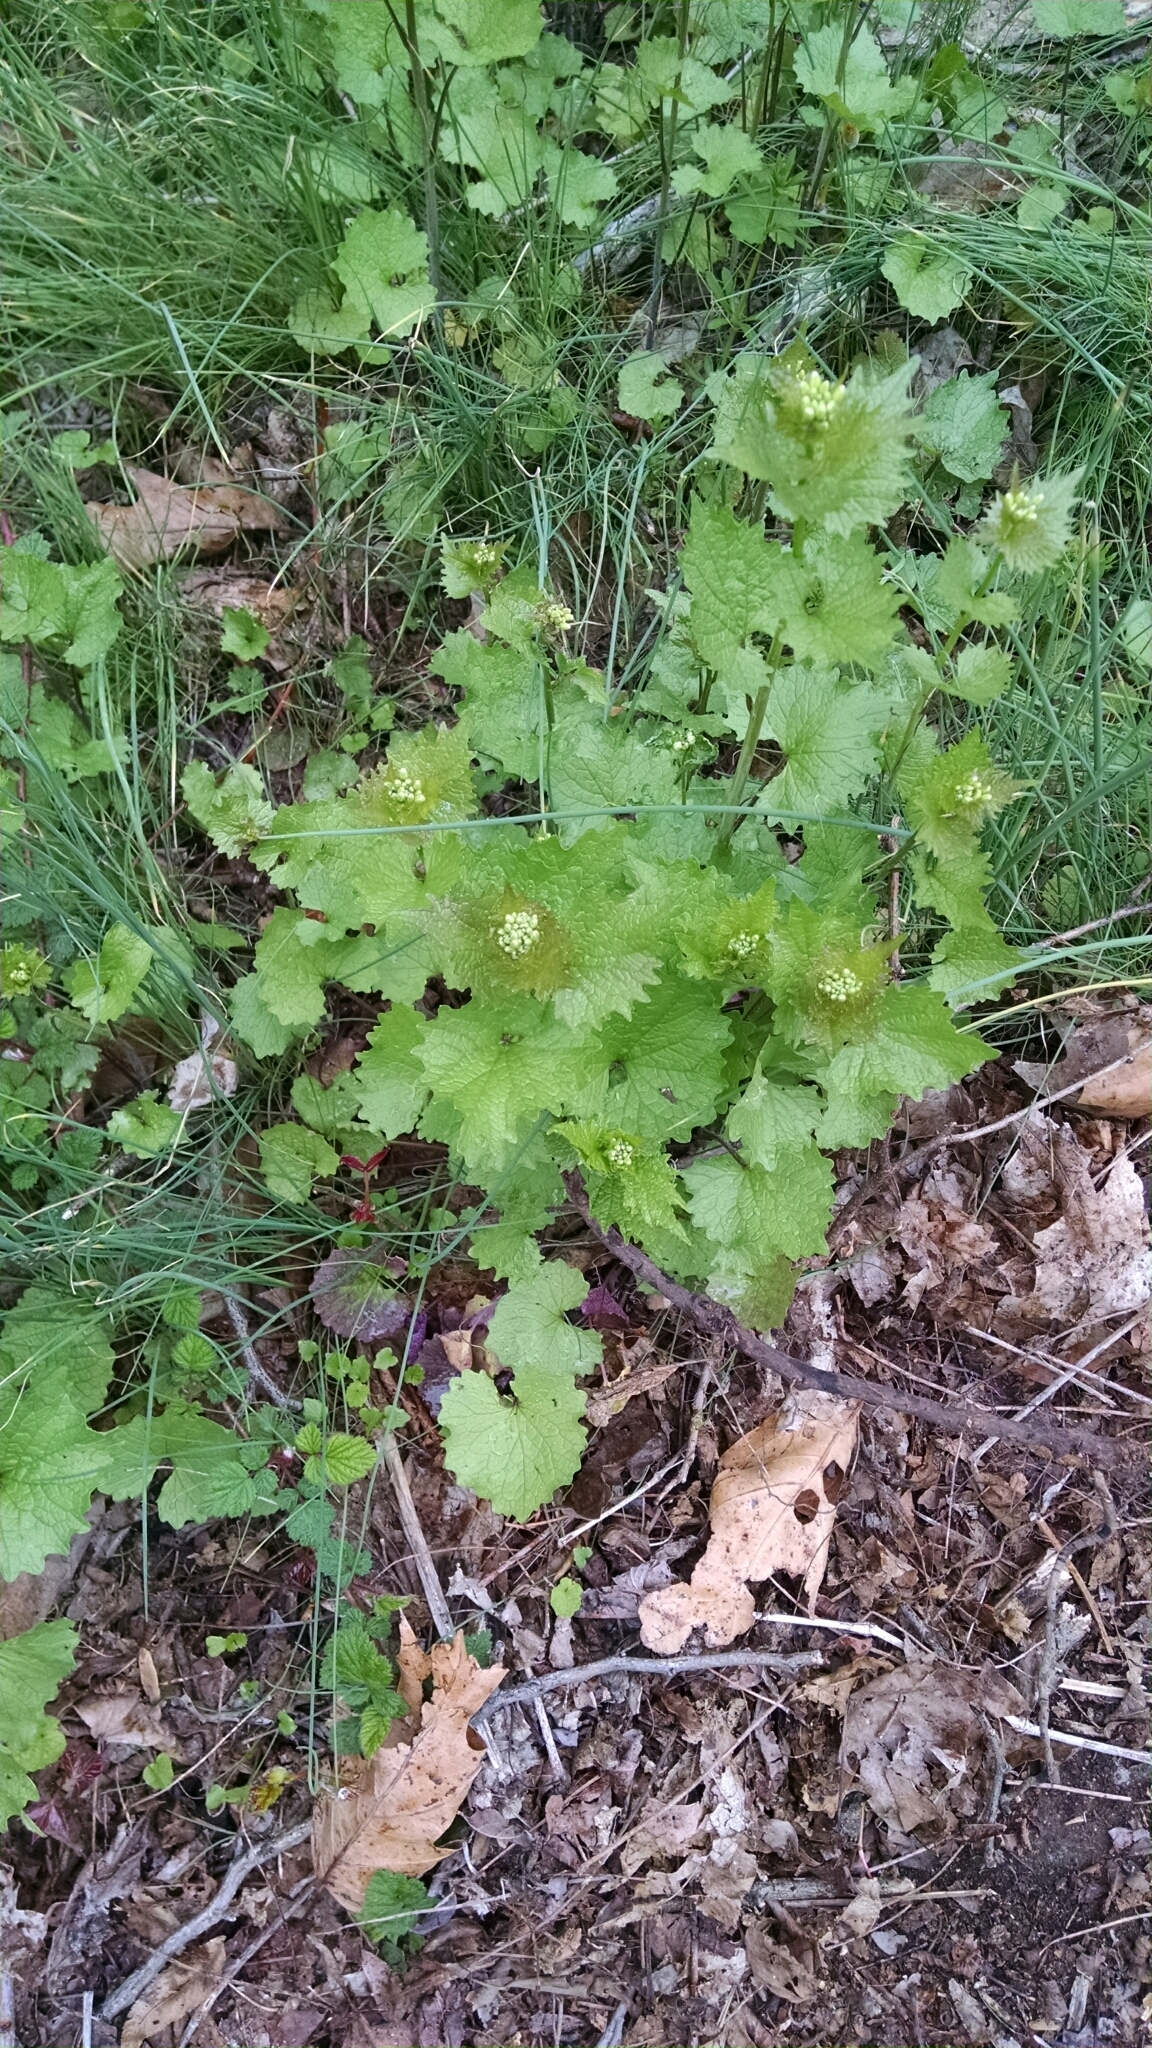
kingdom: Plantae
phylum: Tracheophyta
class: Magnoliopsida
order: Brassicales
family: Brassicaceae
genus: Alliaria
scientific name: Alliaria petiolata
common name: Garlic mustard
